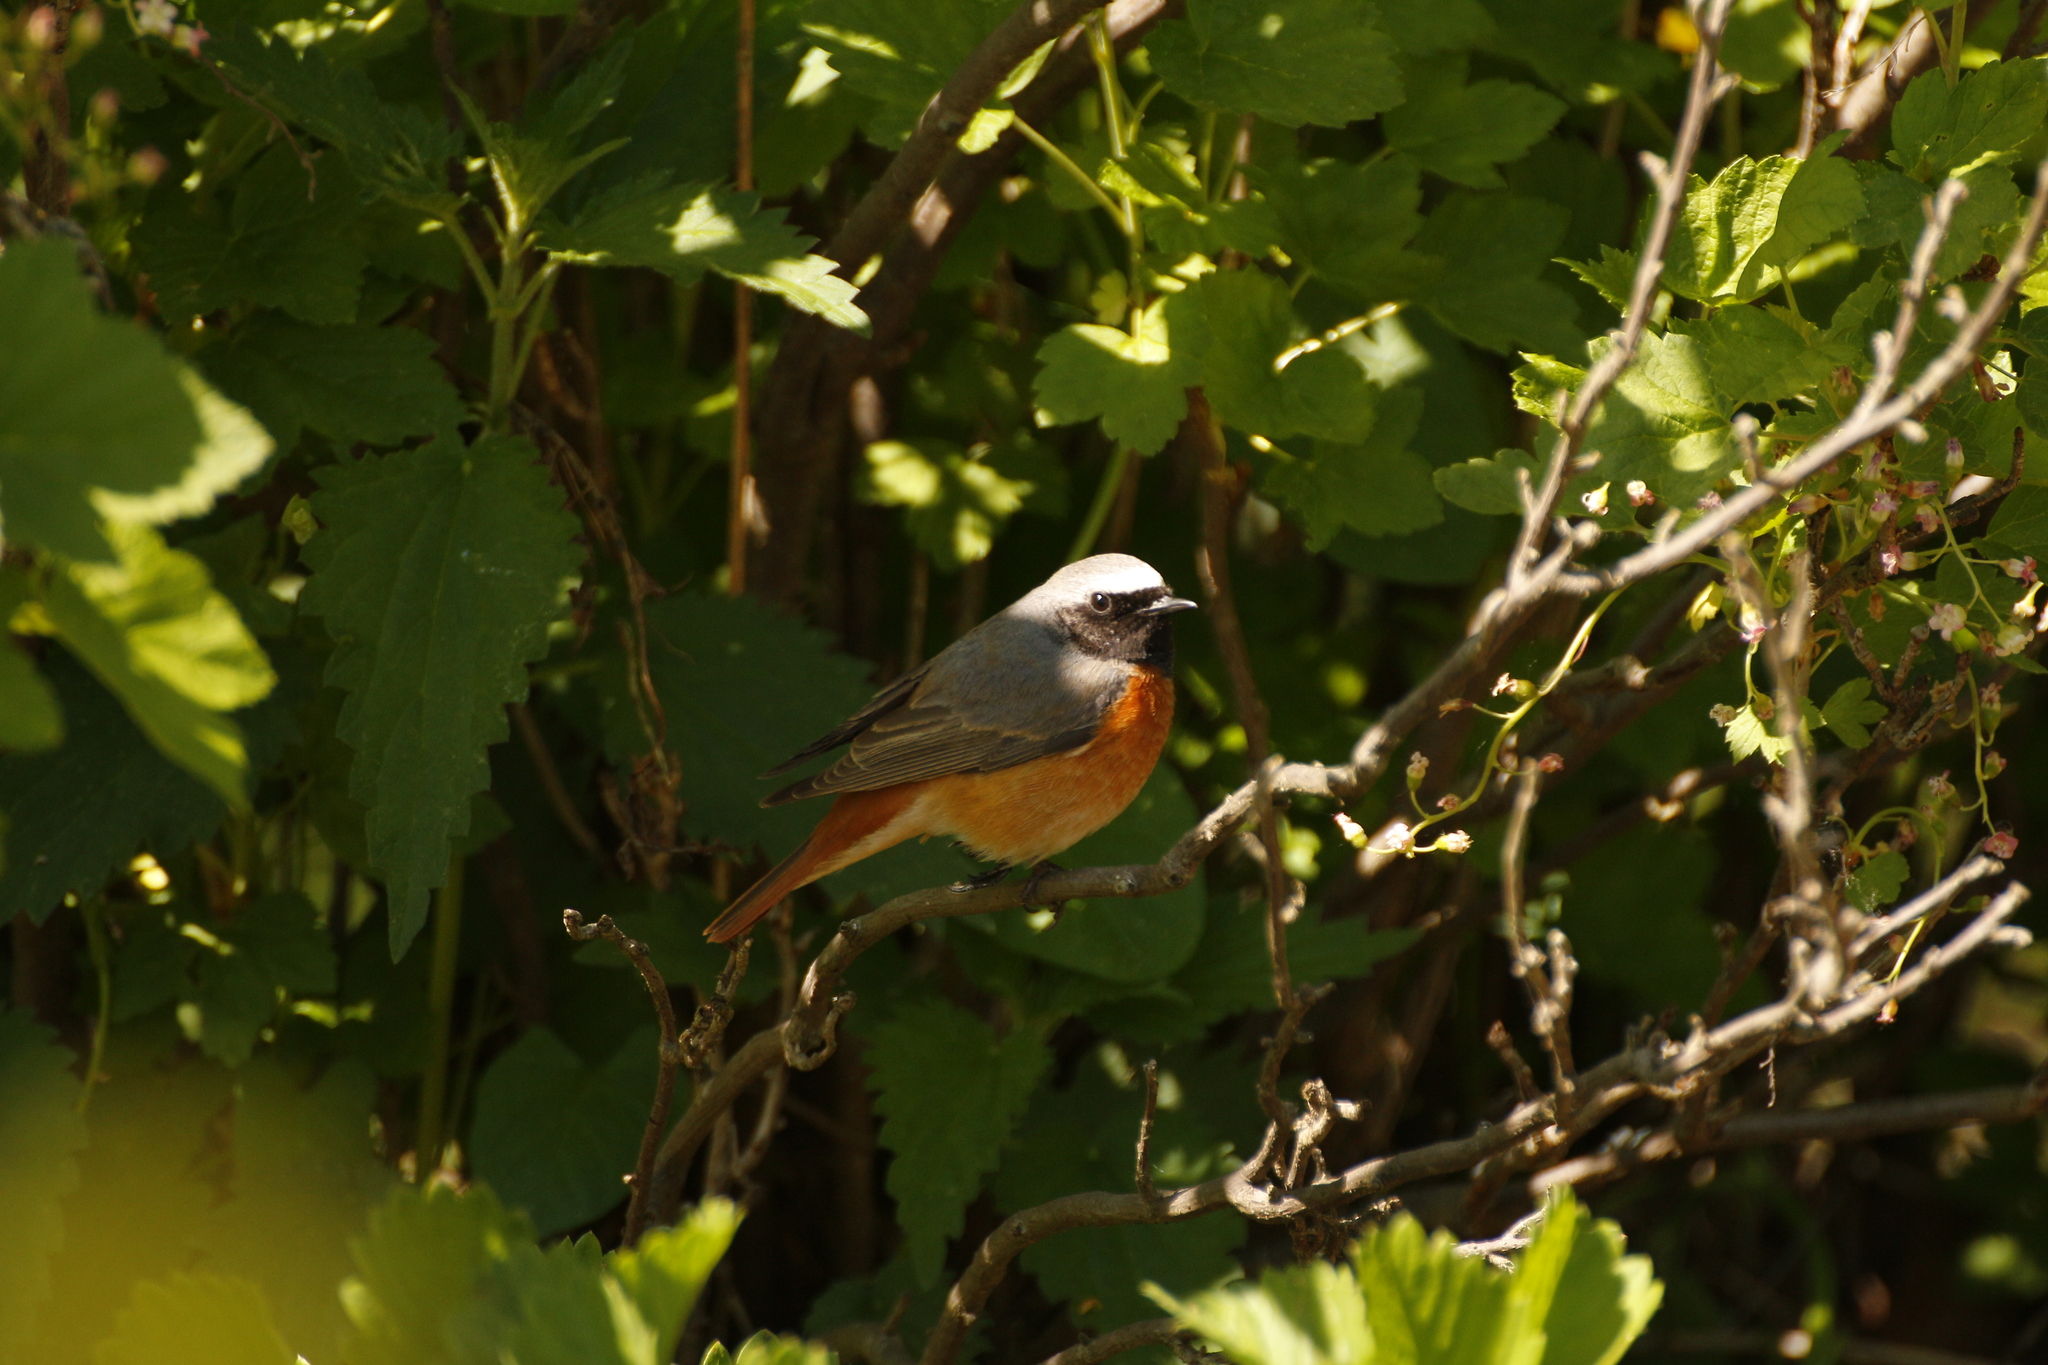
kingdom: Animalia
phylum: Chordata
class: Aves
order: Passeriformes
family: Muscicapidae
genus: Phoenicurus
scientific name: Phoenicurus phoenicurus
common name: Common redstart
